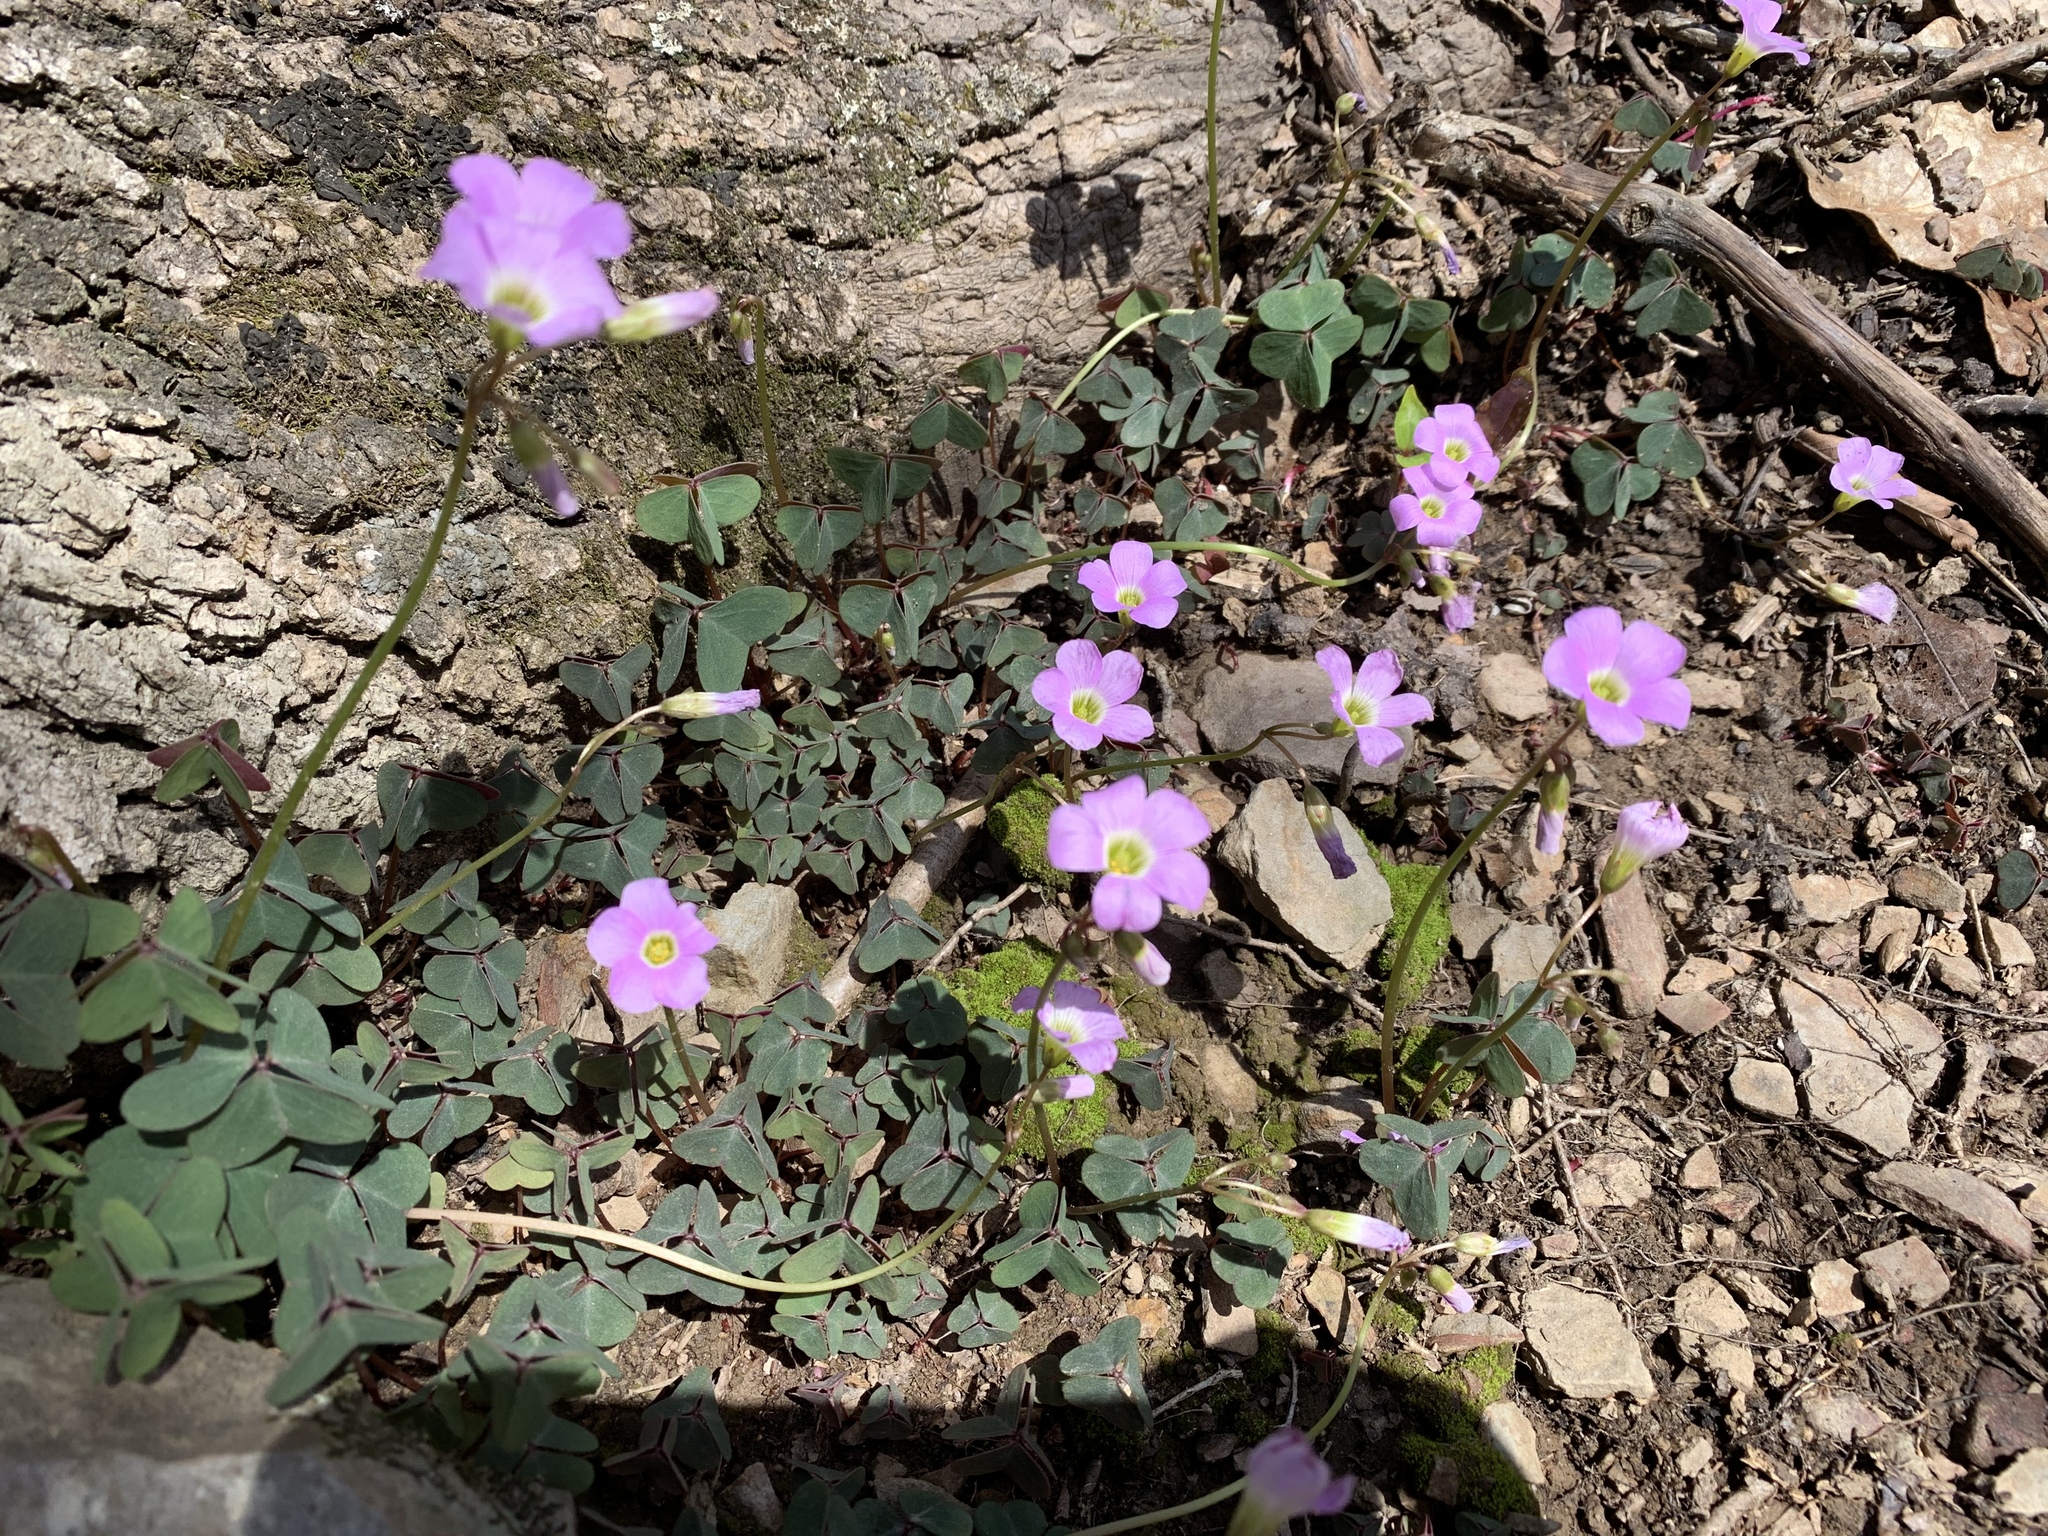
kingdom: Plantae
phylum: Tracheophyta
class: Magnoliopsida
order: Oxalidales
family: Oxalidaceae
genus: Oxalis
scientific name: Oxalis violacea
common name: Violet wood-sorrel
